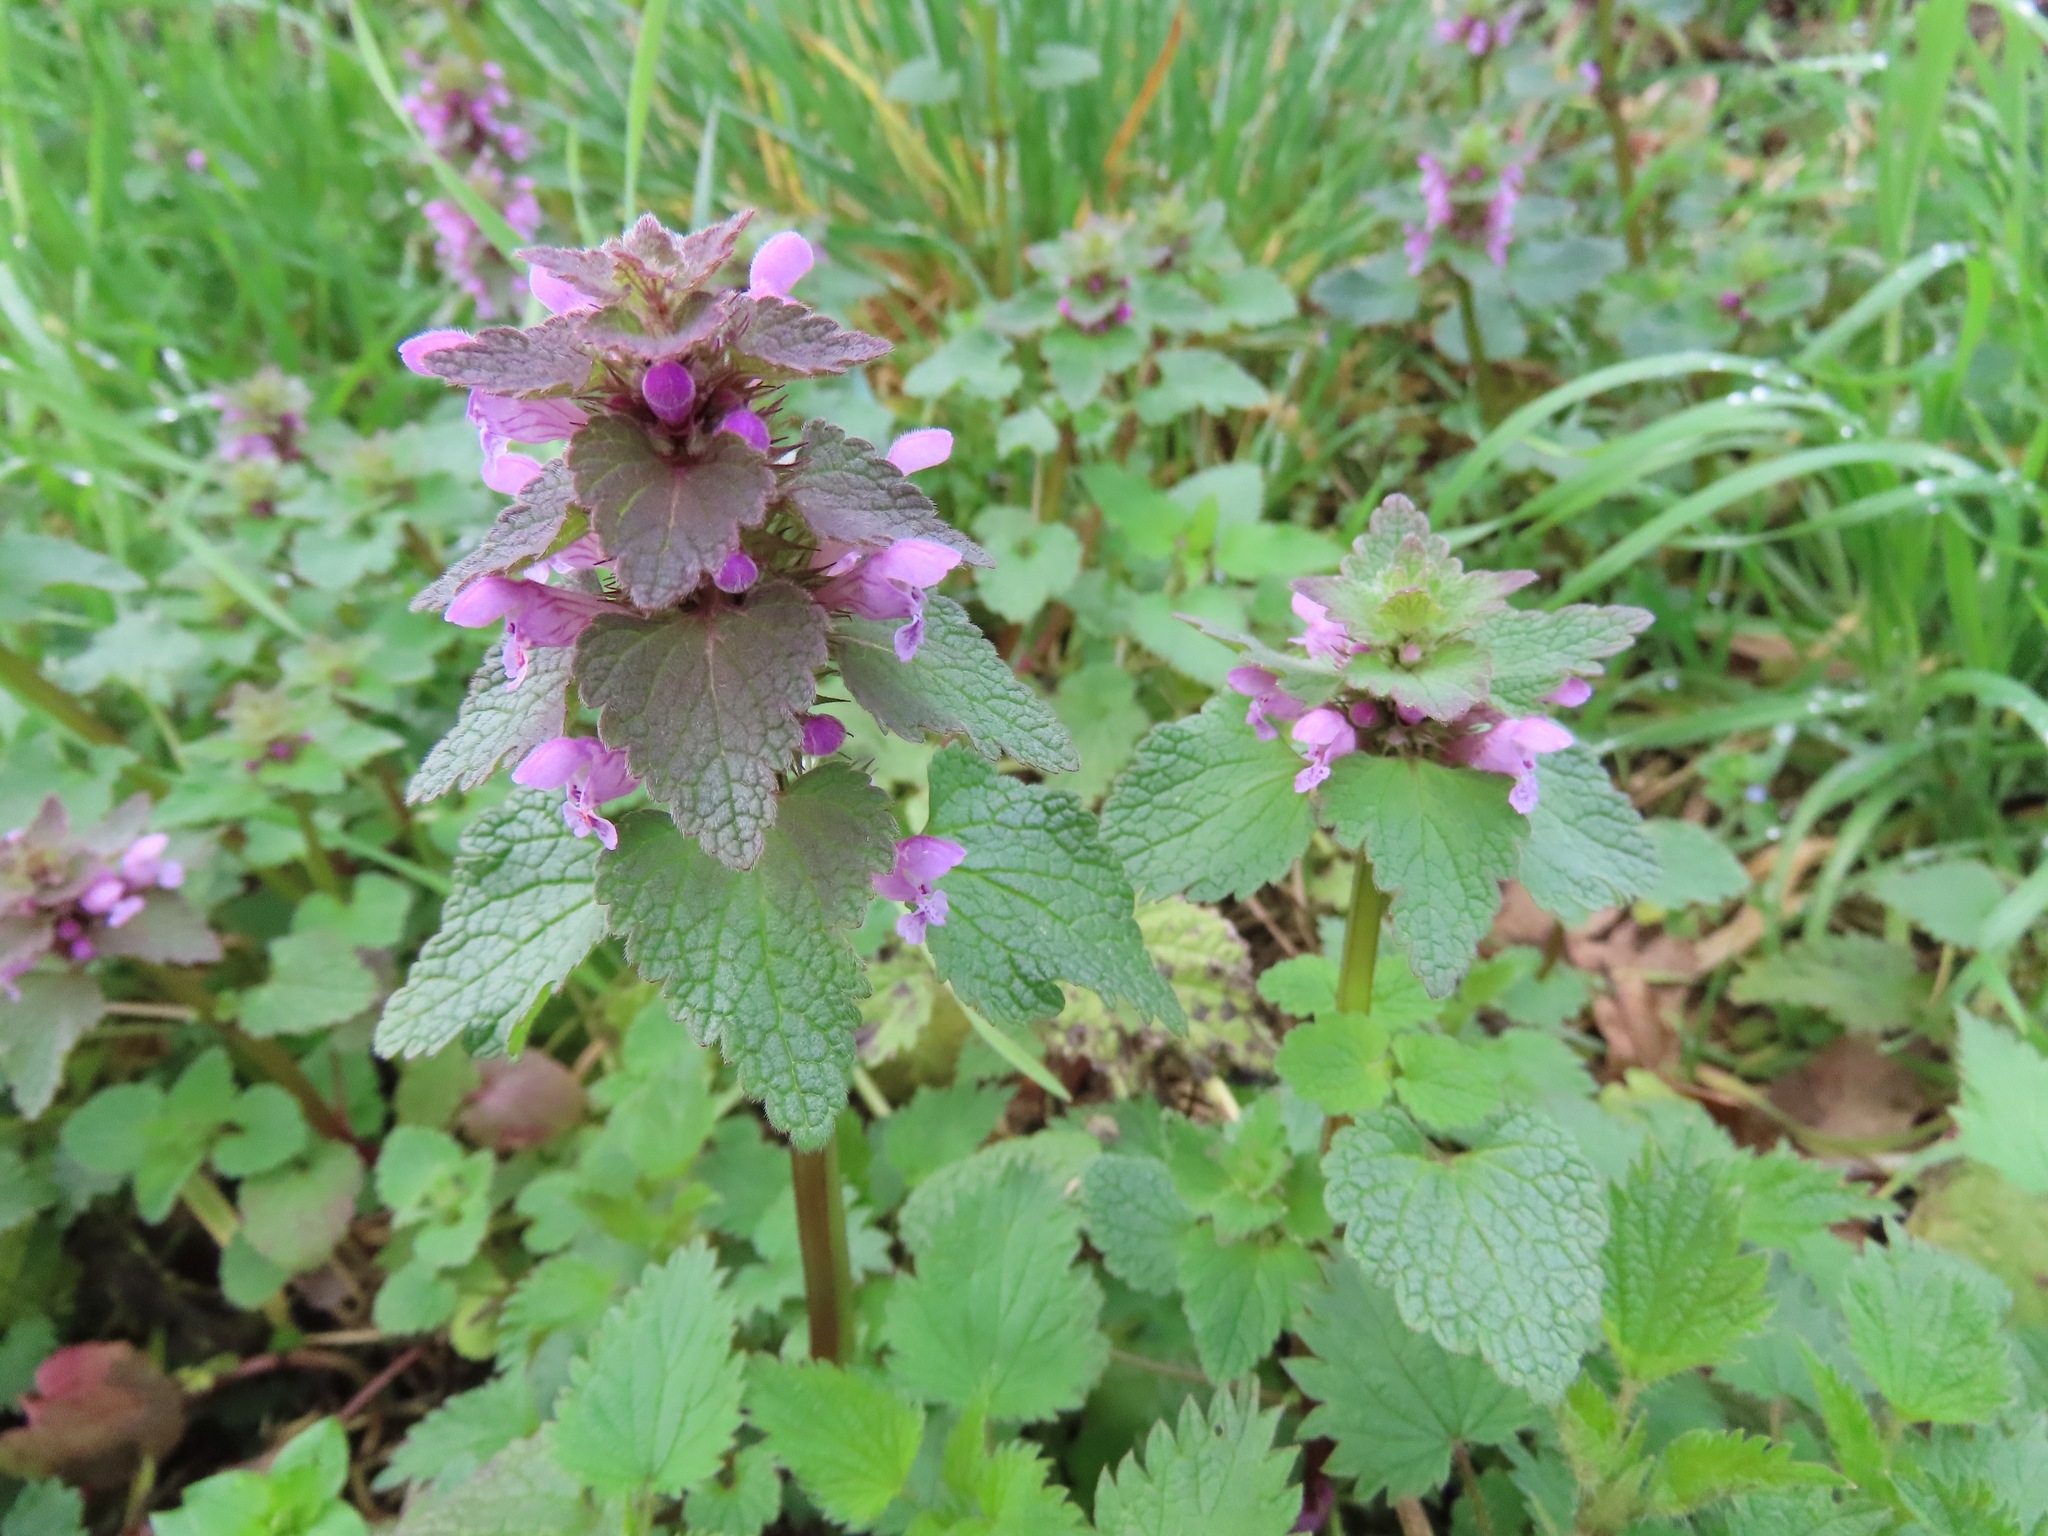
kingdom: Plantae
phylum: Tracheophyta
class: Magnoliopsida
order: Lamiales
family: Lamiaceae
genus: Lamium
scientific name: Lamium purpureum
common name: Red dead-nettle
